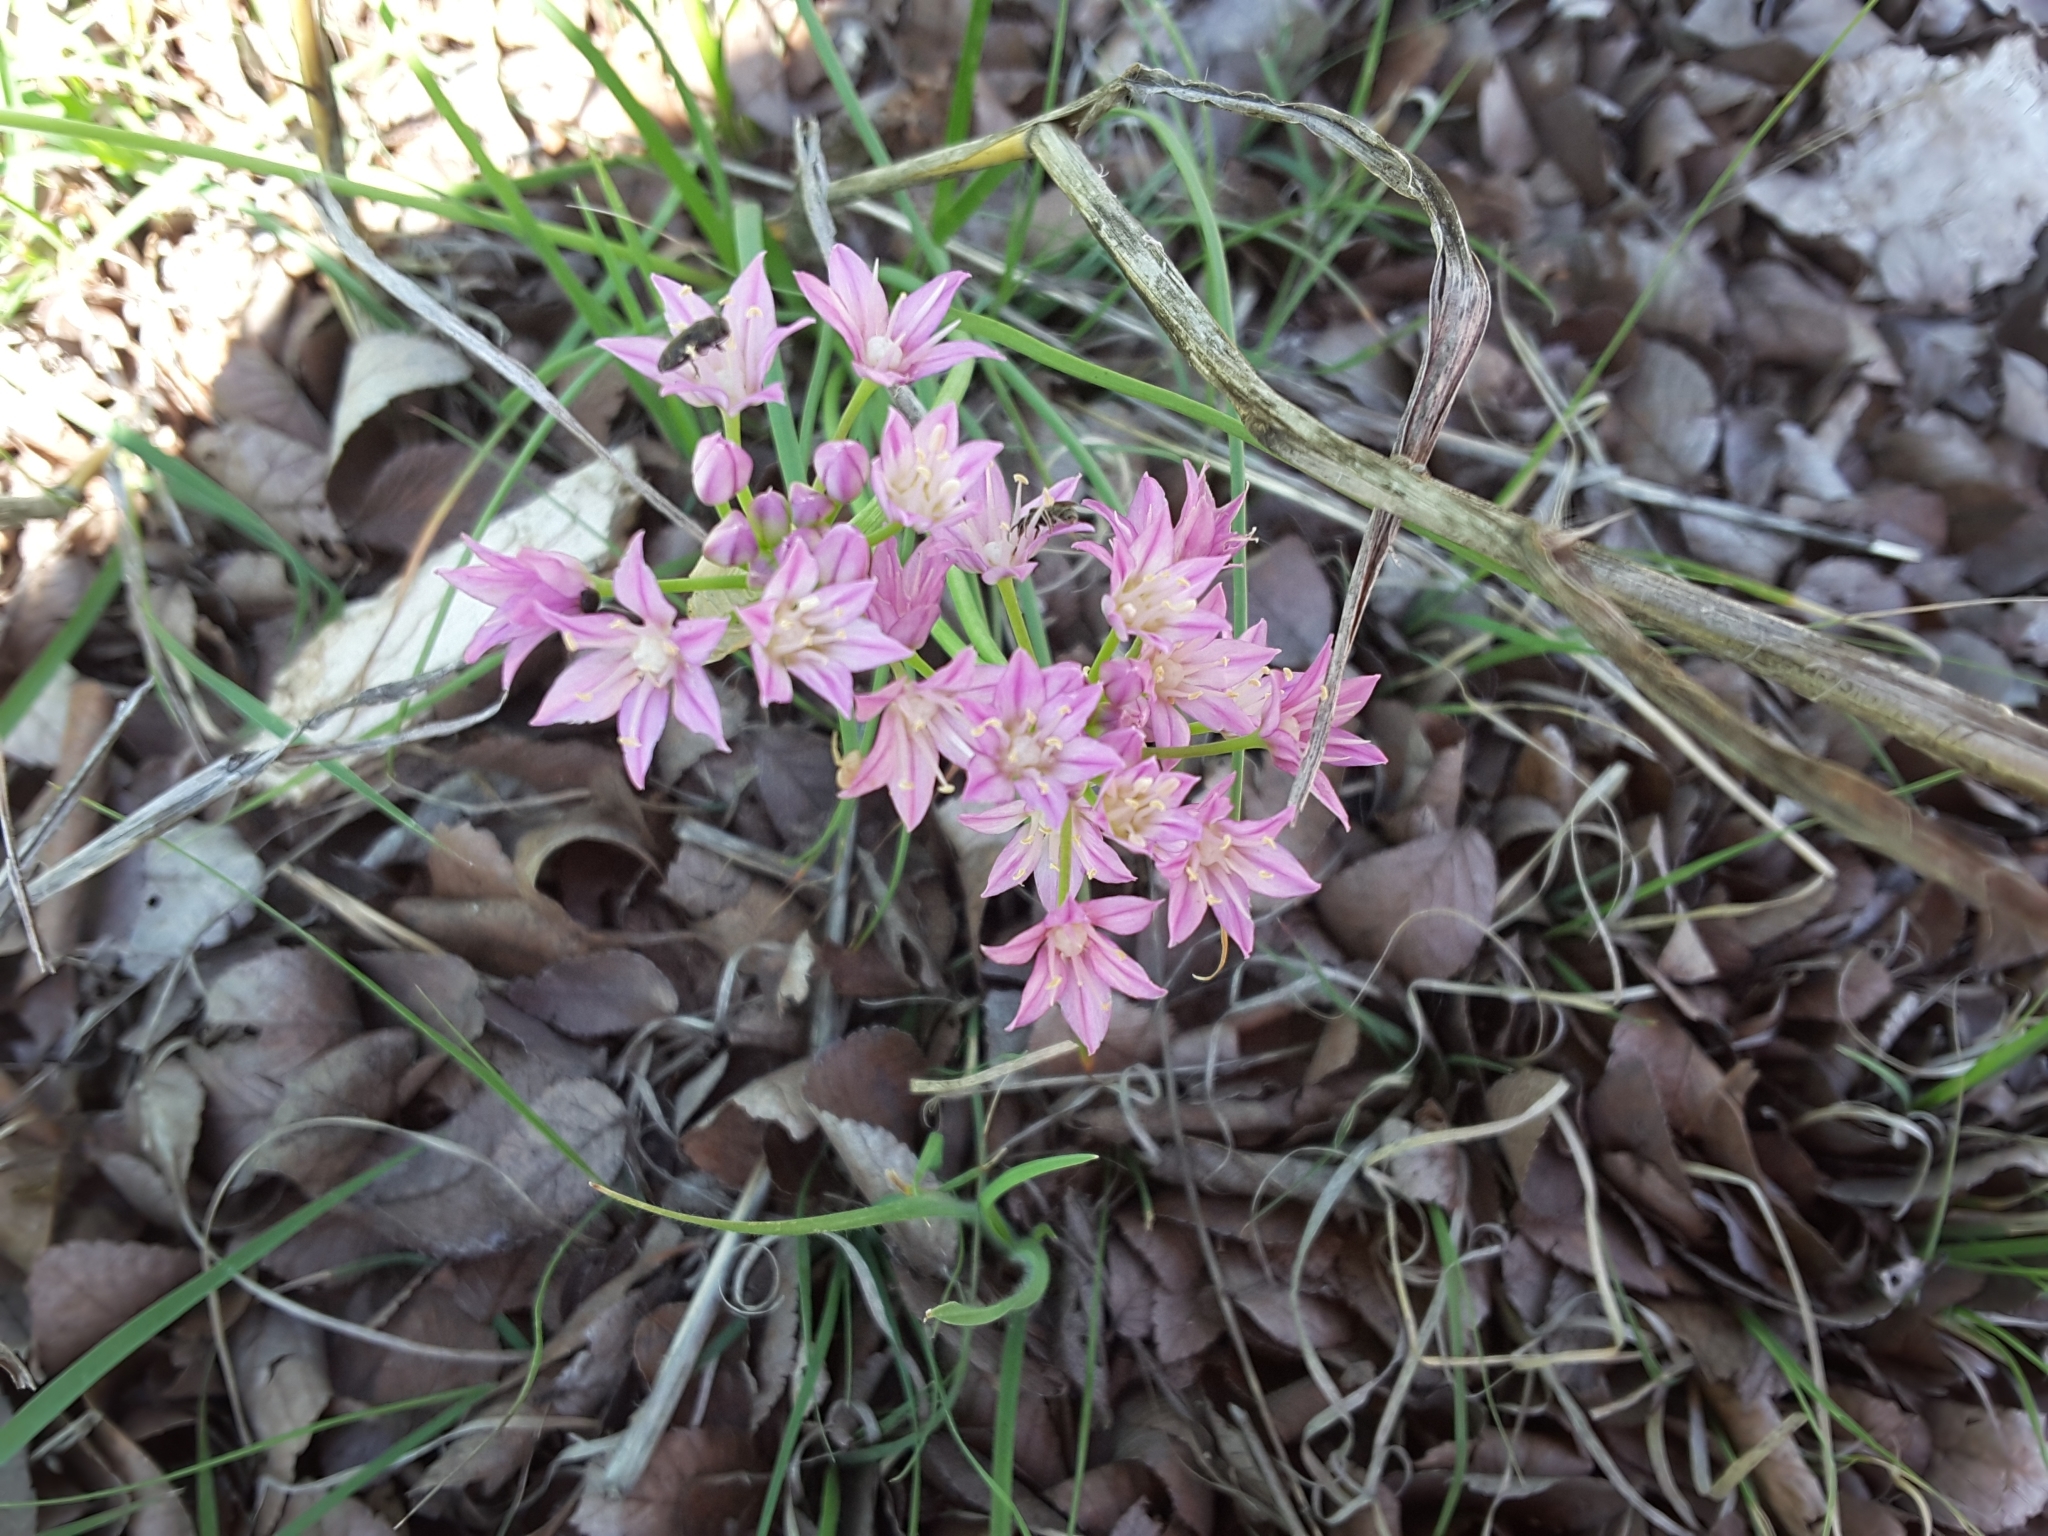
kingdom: Plantae
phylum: Tracheophyta
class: Liliopsida
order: Asparagales
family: Amaryllidaceae
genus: Allium
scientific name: Allium drummondii
